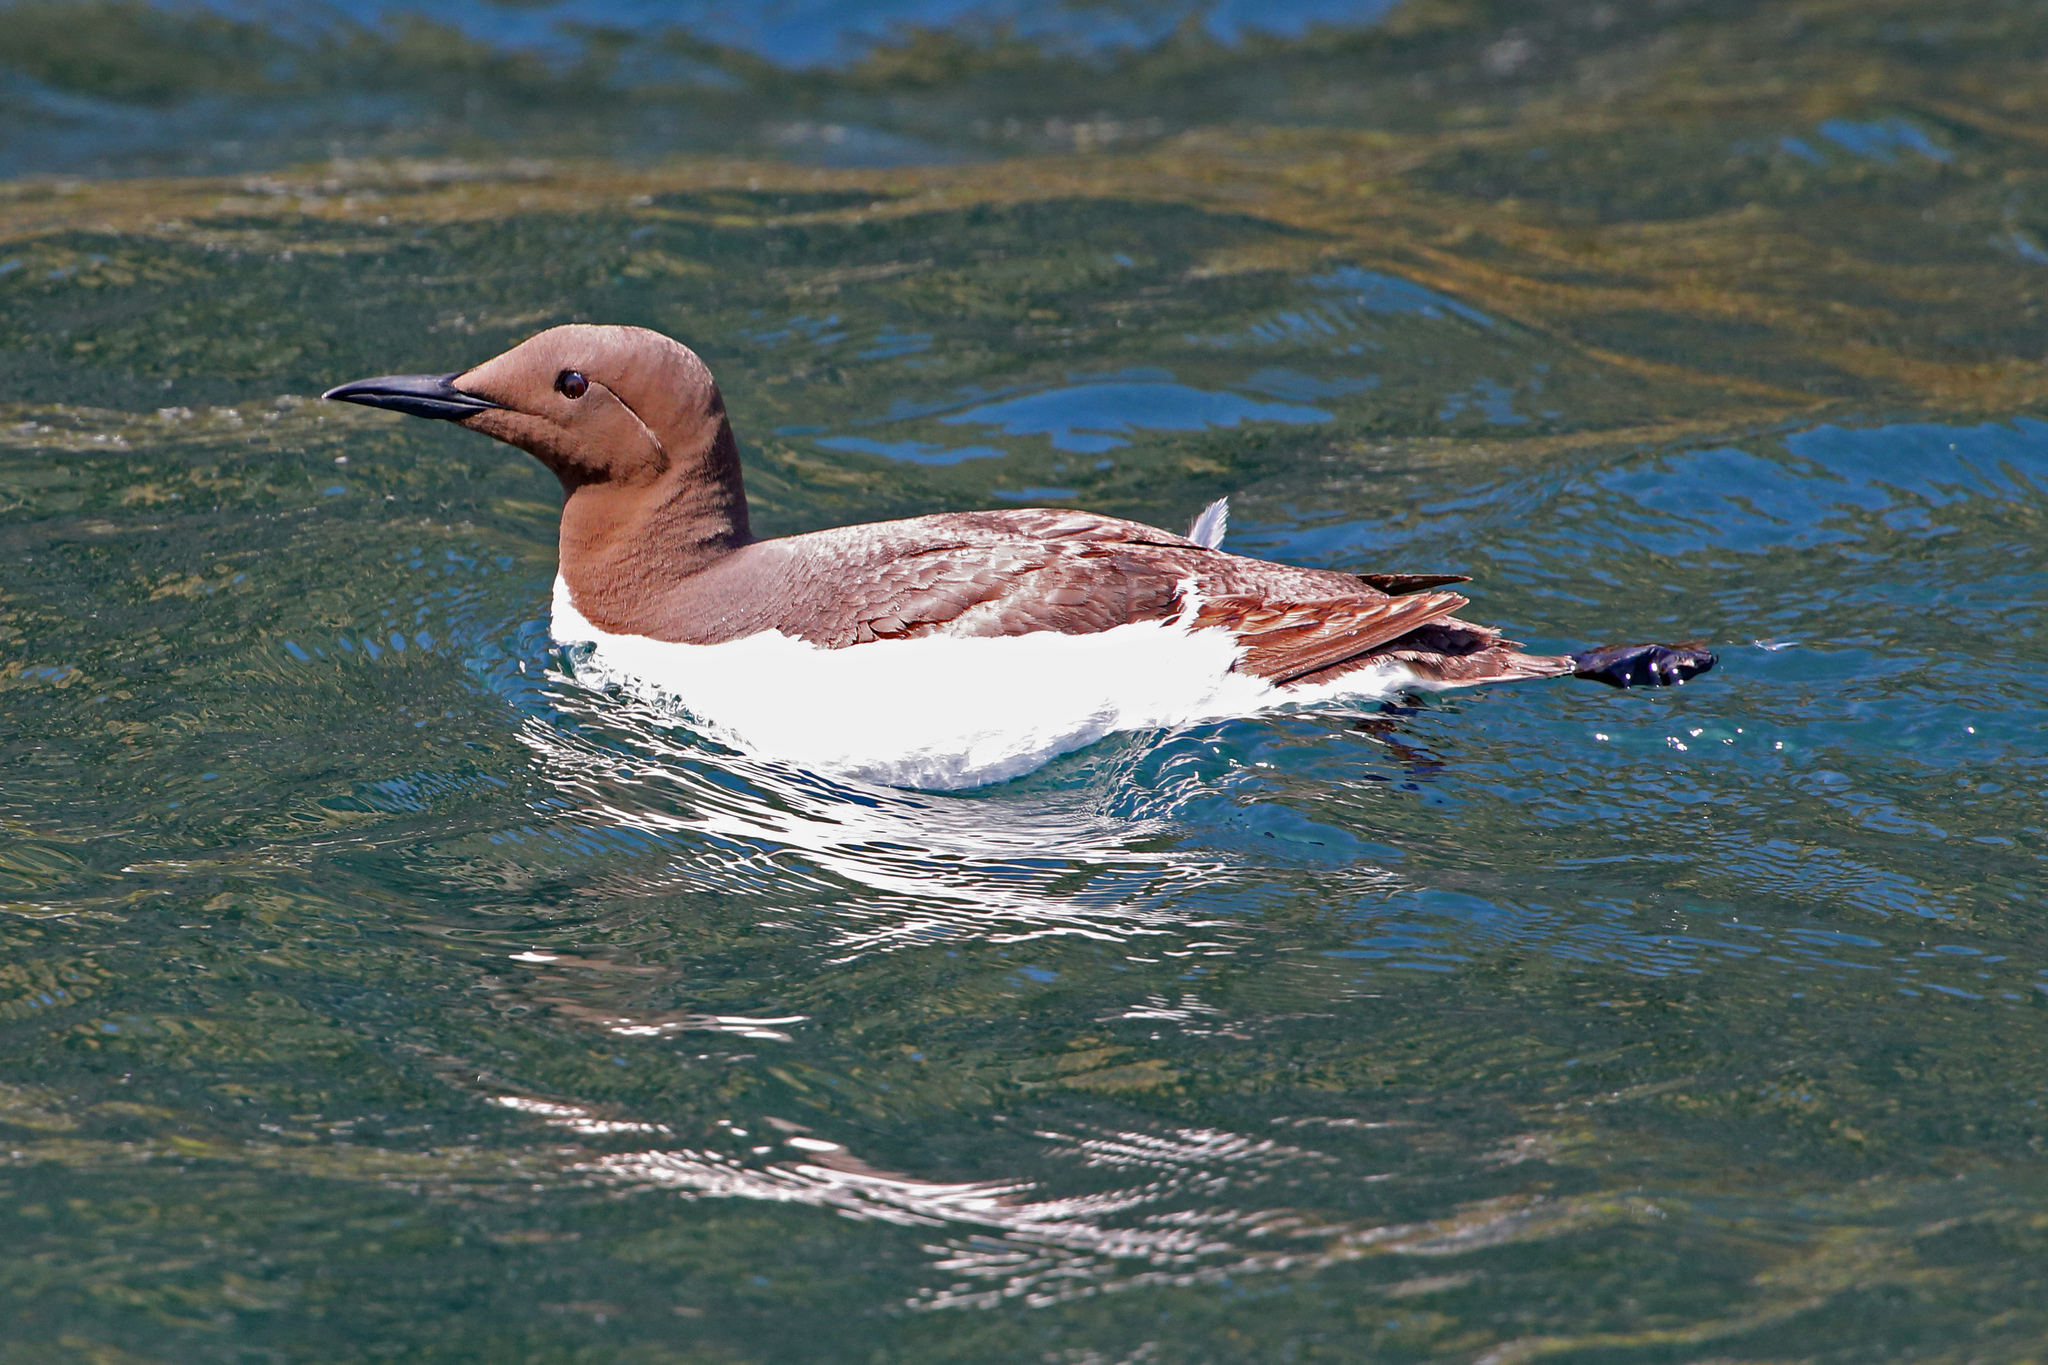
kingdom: Animalia
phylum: Chordata
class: Aves
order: Charadriiformes
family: Alcidae
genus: Uria
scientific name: Uria aalge
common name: Common murre
